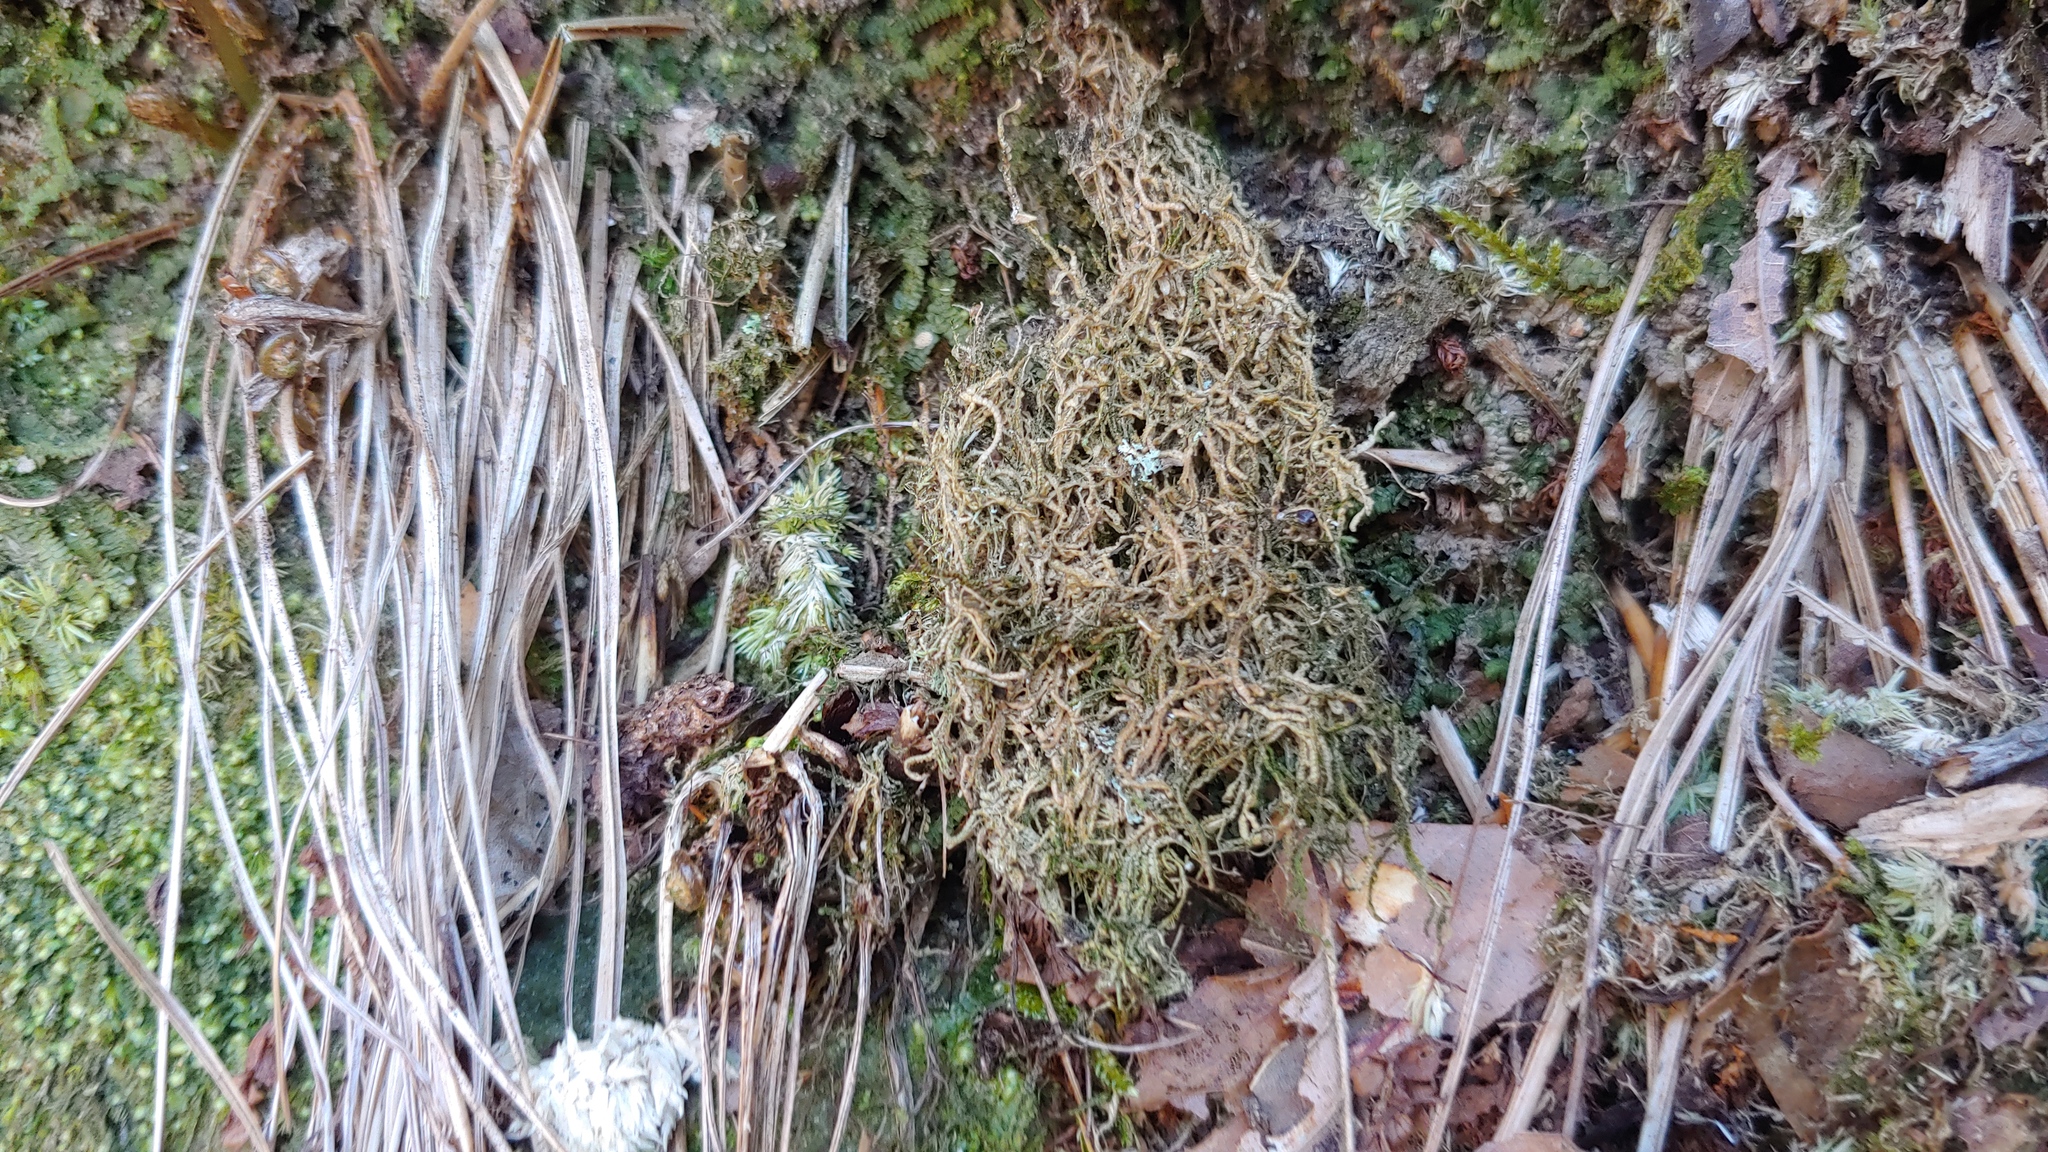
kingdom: Plantae
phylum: Marchantiophyta
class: Jungermanniopsida
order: Jungermanniales
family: Cephaloziaceae
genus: Odontoschisma
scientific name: Odontoschisma denudatum
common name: Matchstick flapwort
